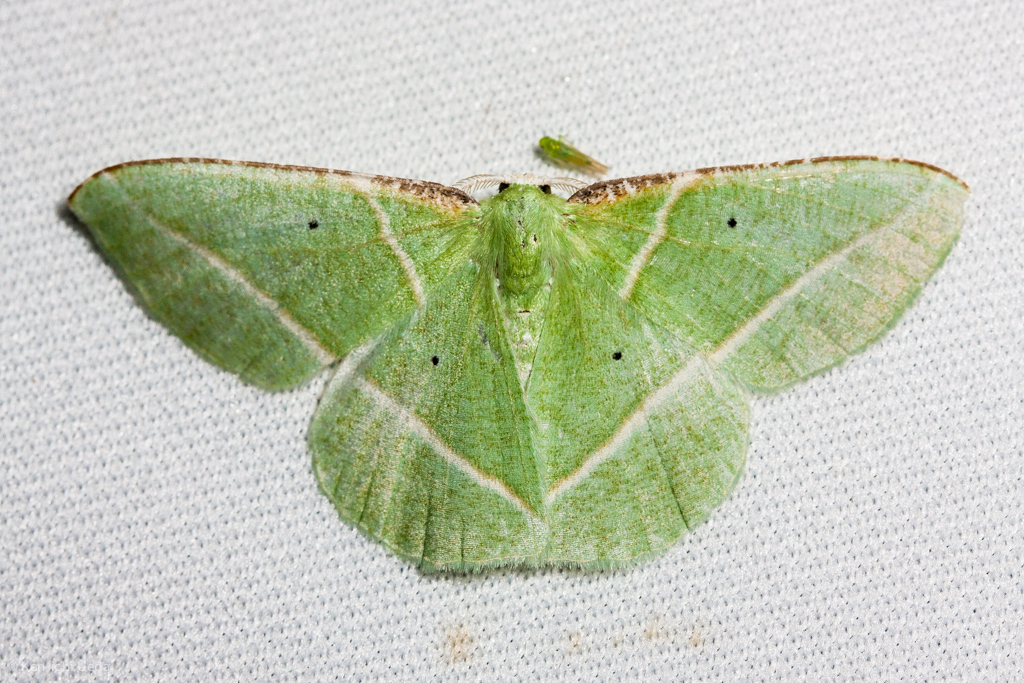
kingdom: Animalia
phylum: Arthropoda
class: Insecta
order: Lepidoptera
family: Geometridae
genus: Dichorda
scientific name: Dichorda illustraria
